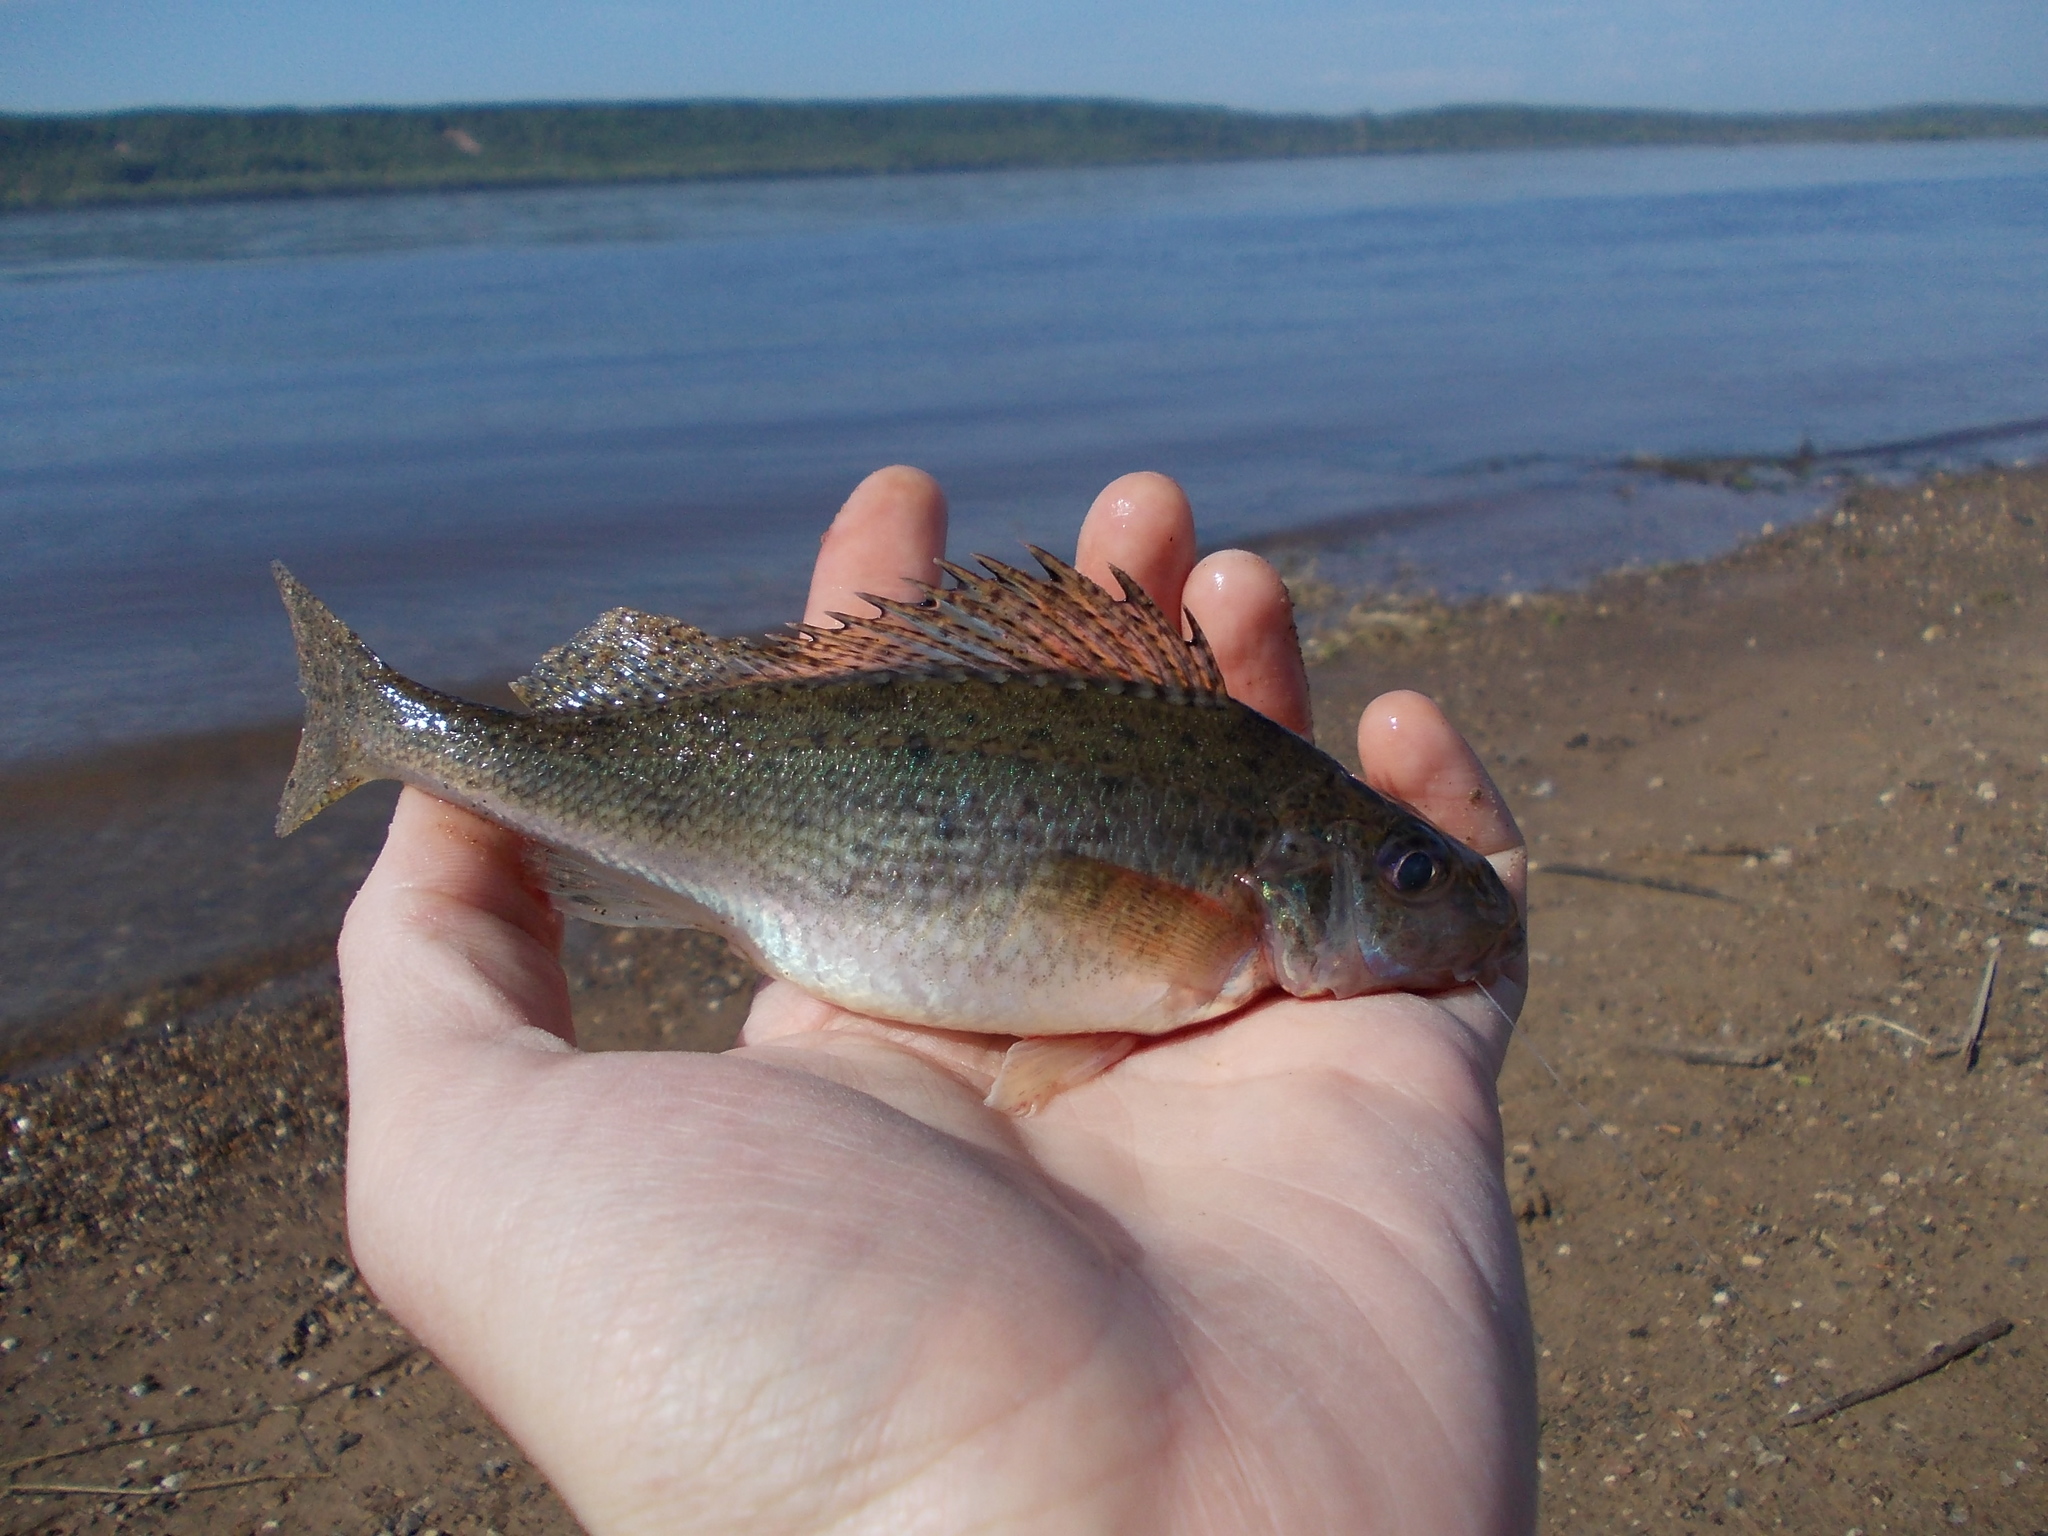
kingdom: Animalia
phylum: Chordata
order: Perciformes
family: Percidae
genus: Gymnocephalus
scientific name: Gymnocephalus cernua
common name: Ruffe
